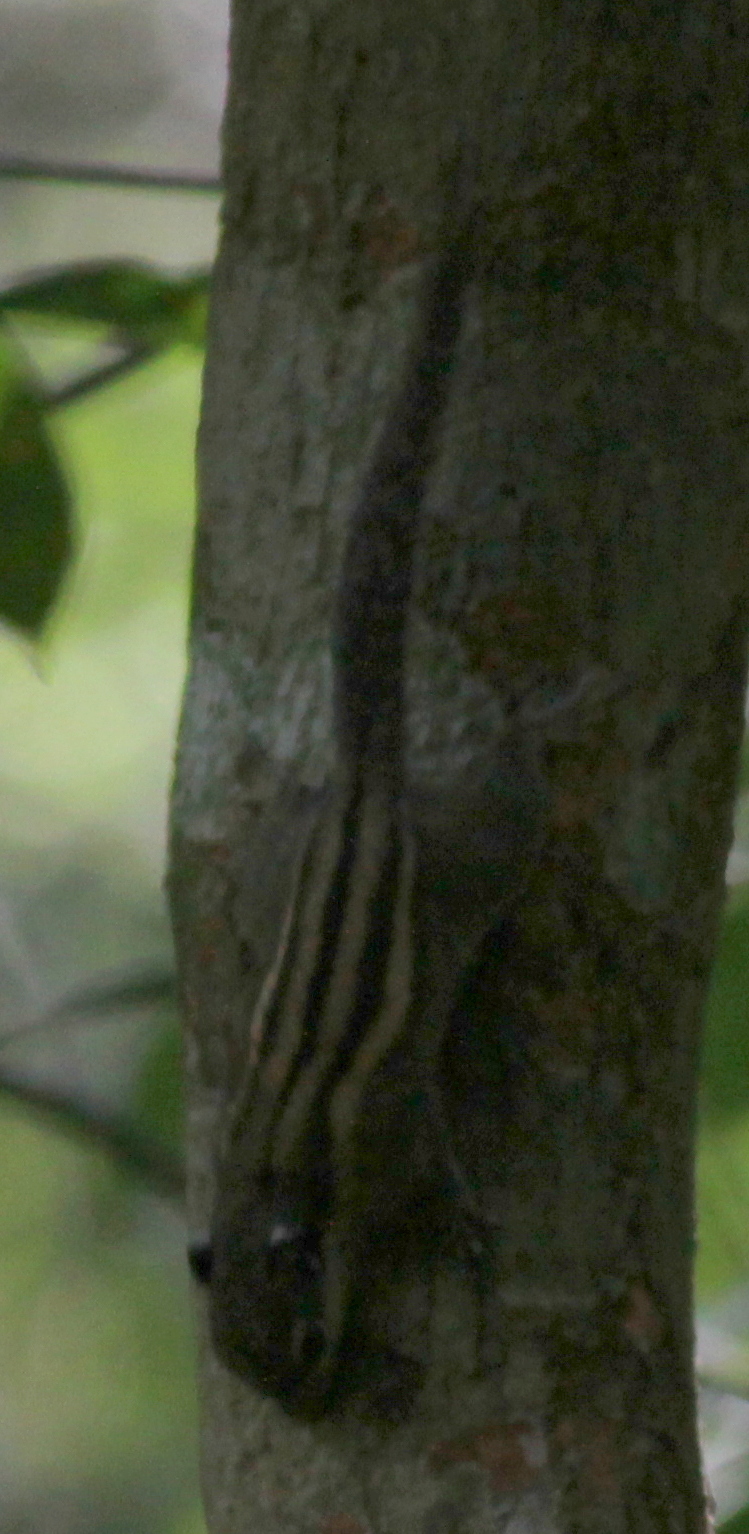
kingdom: Animalia
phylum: Chordata
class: Mammalia
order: Rodentia
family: Sciuridae
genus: Tamiops
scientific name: Tamiops mcclellandii
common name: Himalayan striped squirrel
